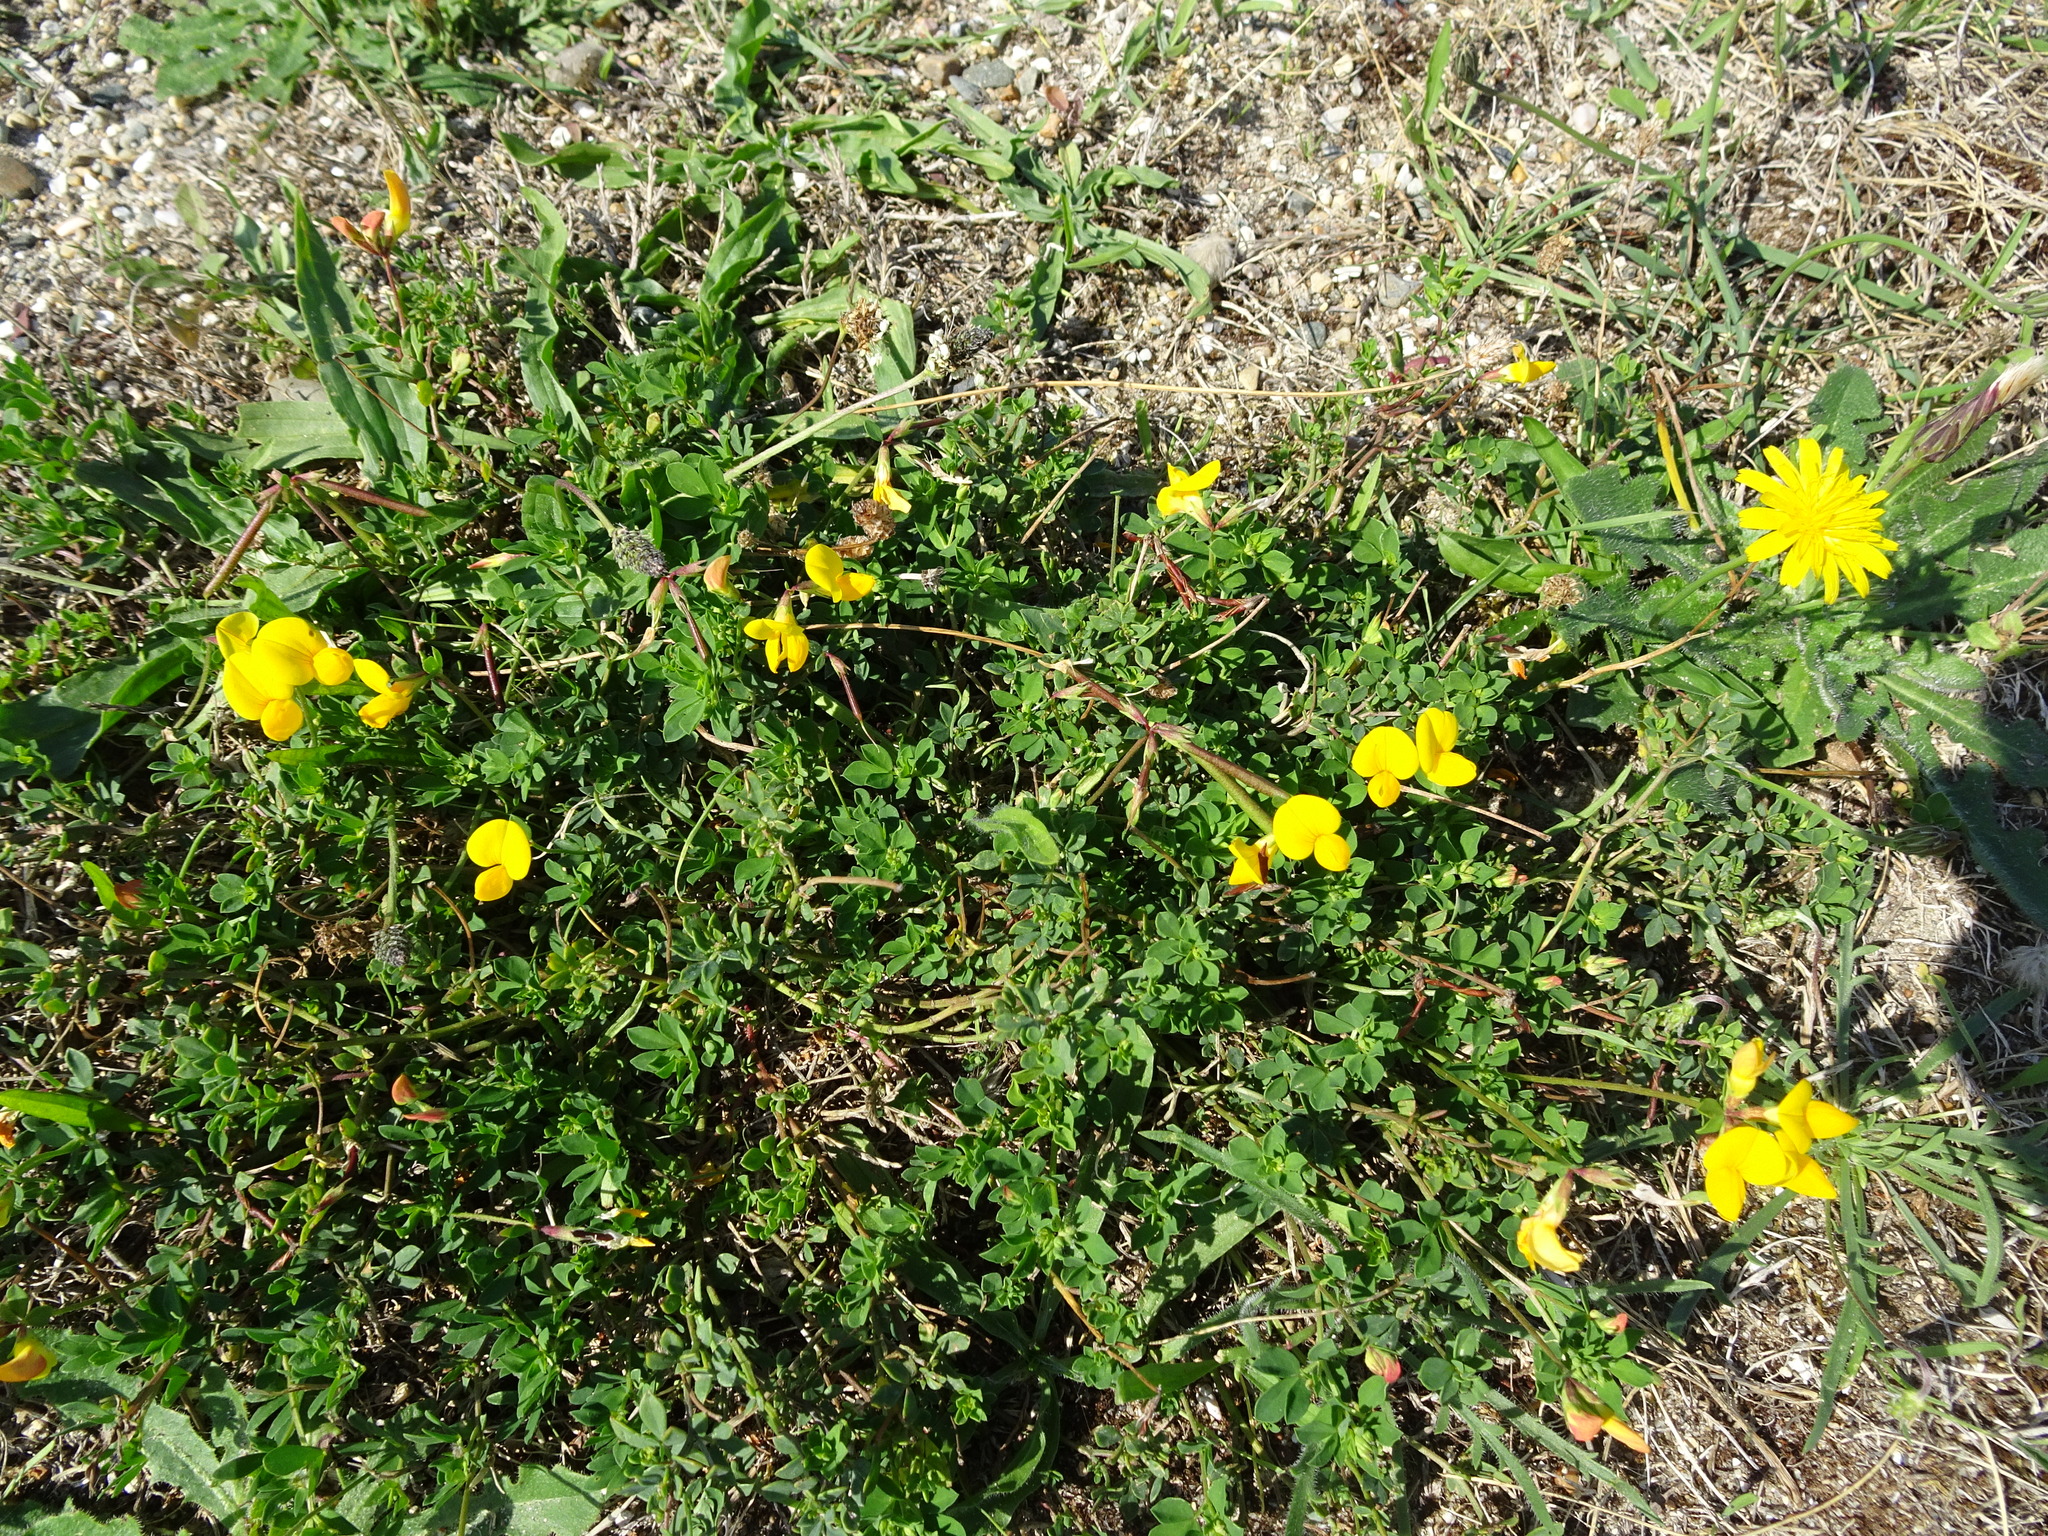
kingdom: Plantae
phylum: Tracheophyta
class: Magnoliopsida
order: Fabales
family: Fabaceae
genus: Lotus
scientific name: Lotus corniculatus
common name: Common bird's-foot-trefoil
